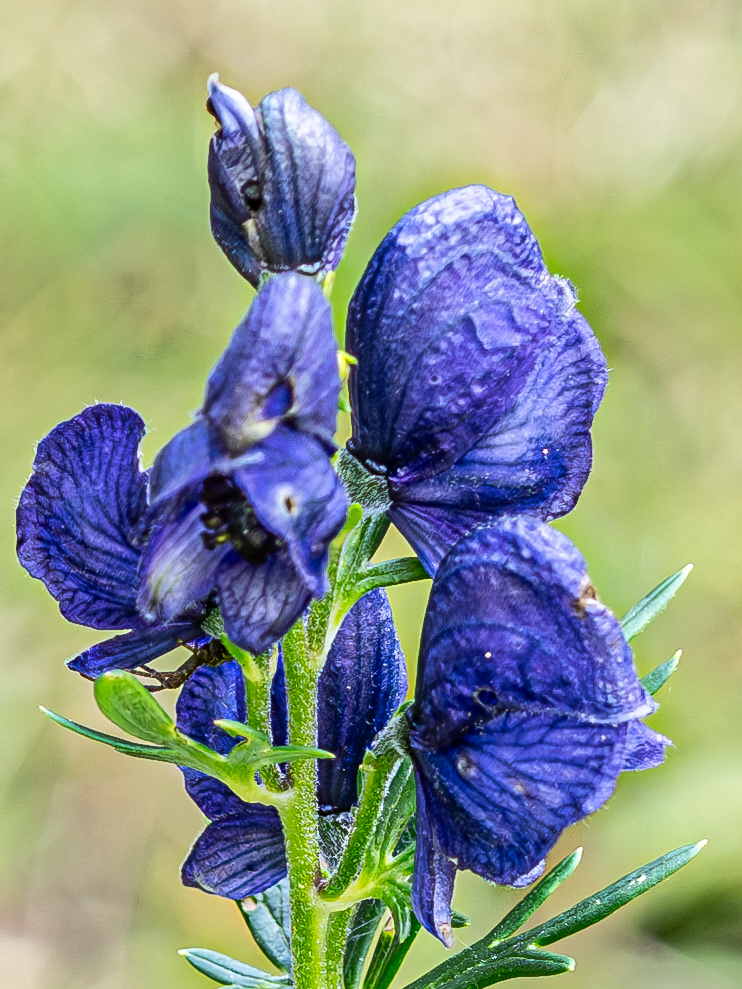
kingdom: Plantae
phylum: Tracheophyta
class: Magnoliopsida
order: Ranunculales
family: Ranunculaceae
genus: Aconitum
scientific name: Aconitum teppneri
